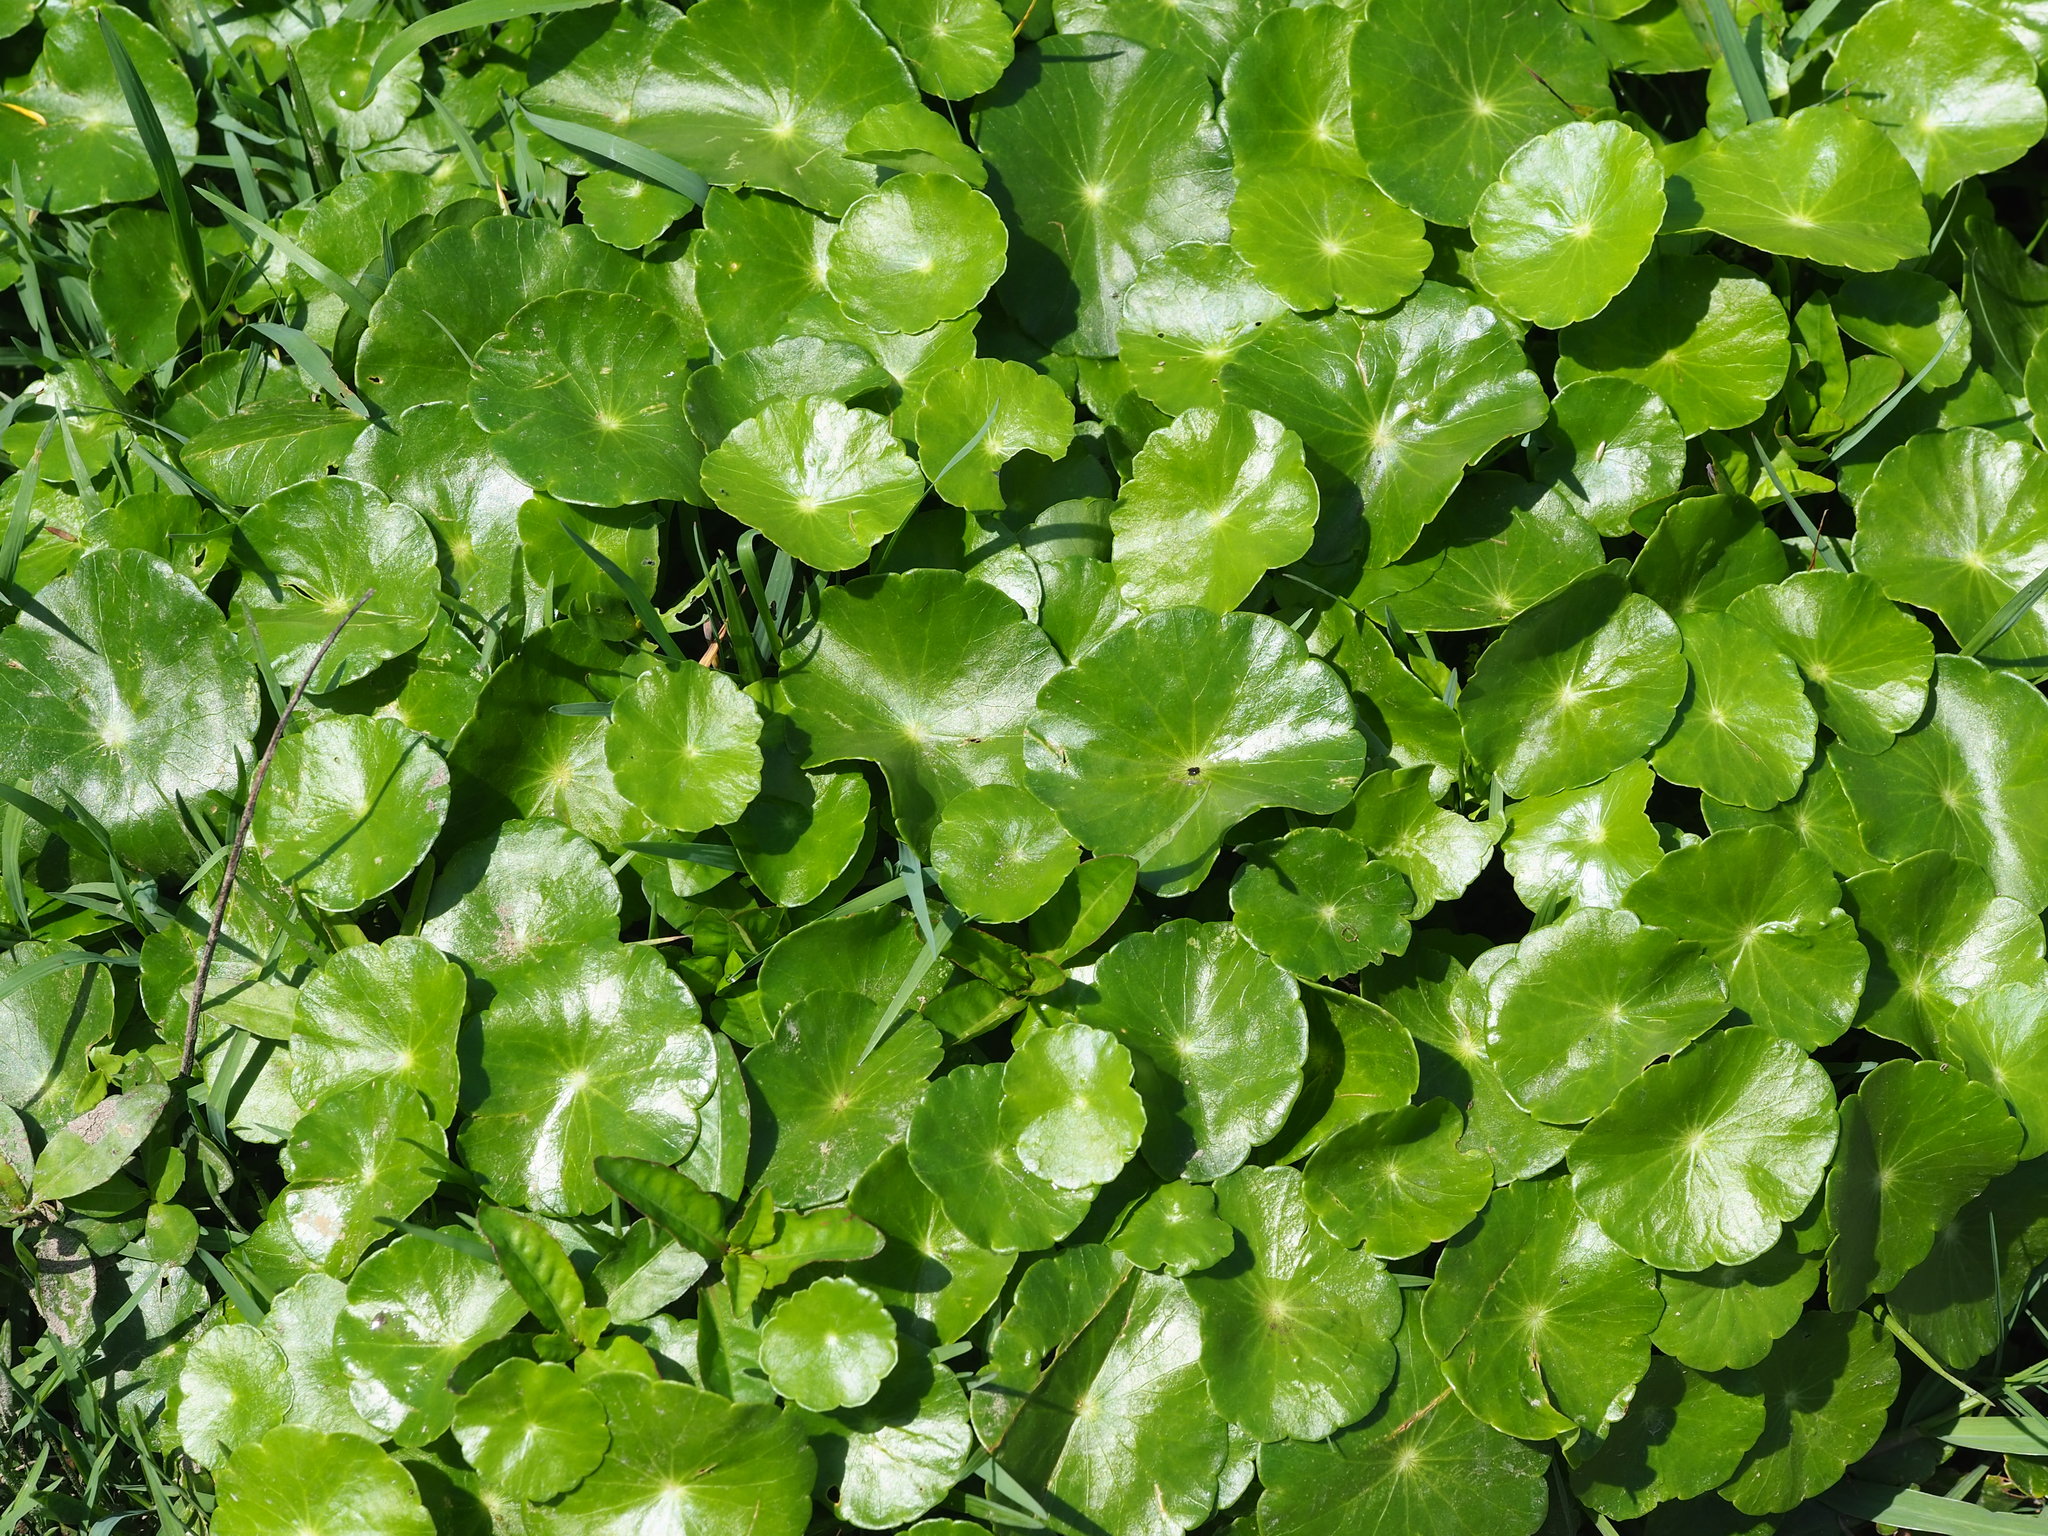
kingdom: Plantae
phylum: Tracheophyta
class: Magnoliopsida
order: Apiales
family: Araliaceae
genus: Hydrocotyle
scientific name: Hydrocotyle verticillata
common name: Whorled marshpennywort
